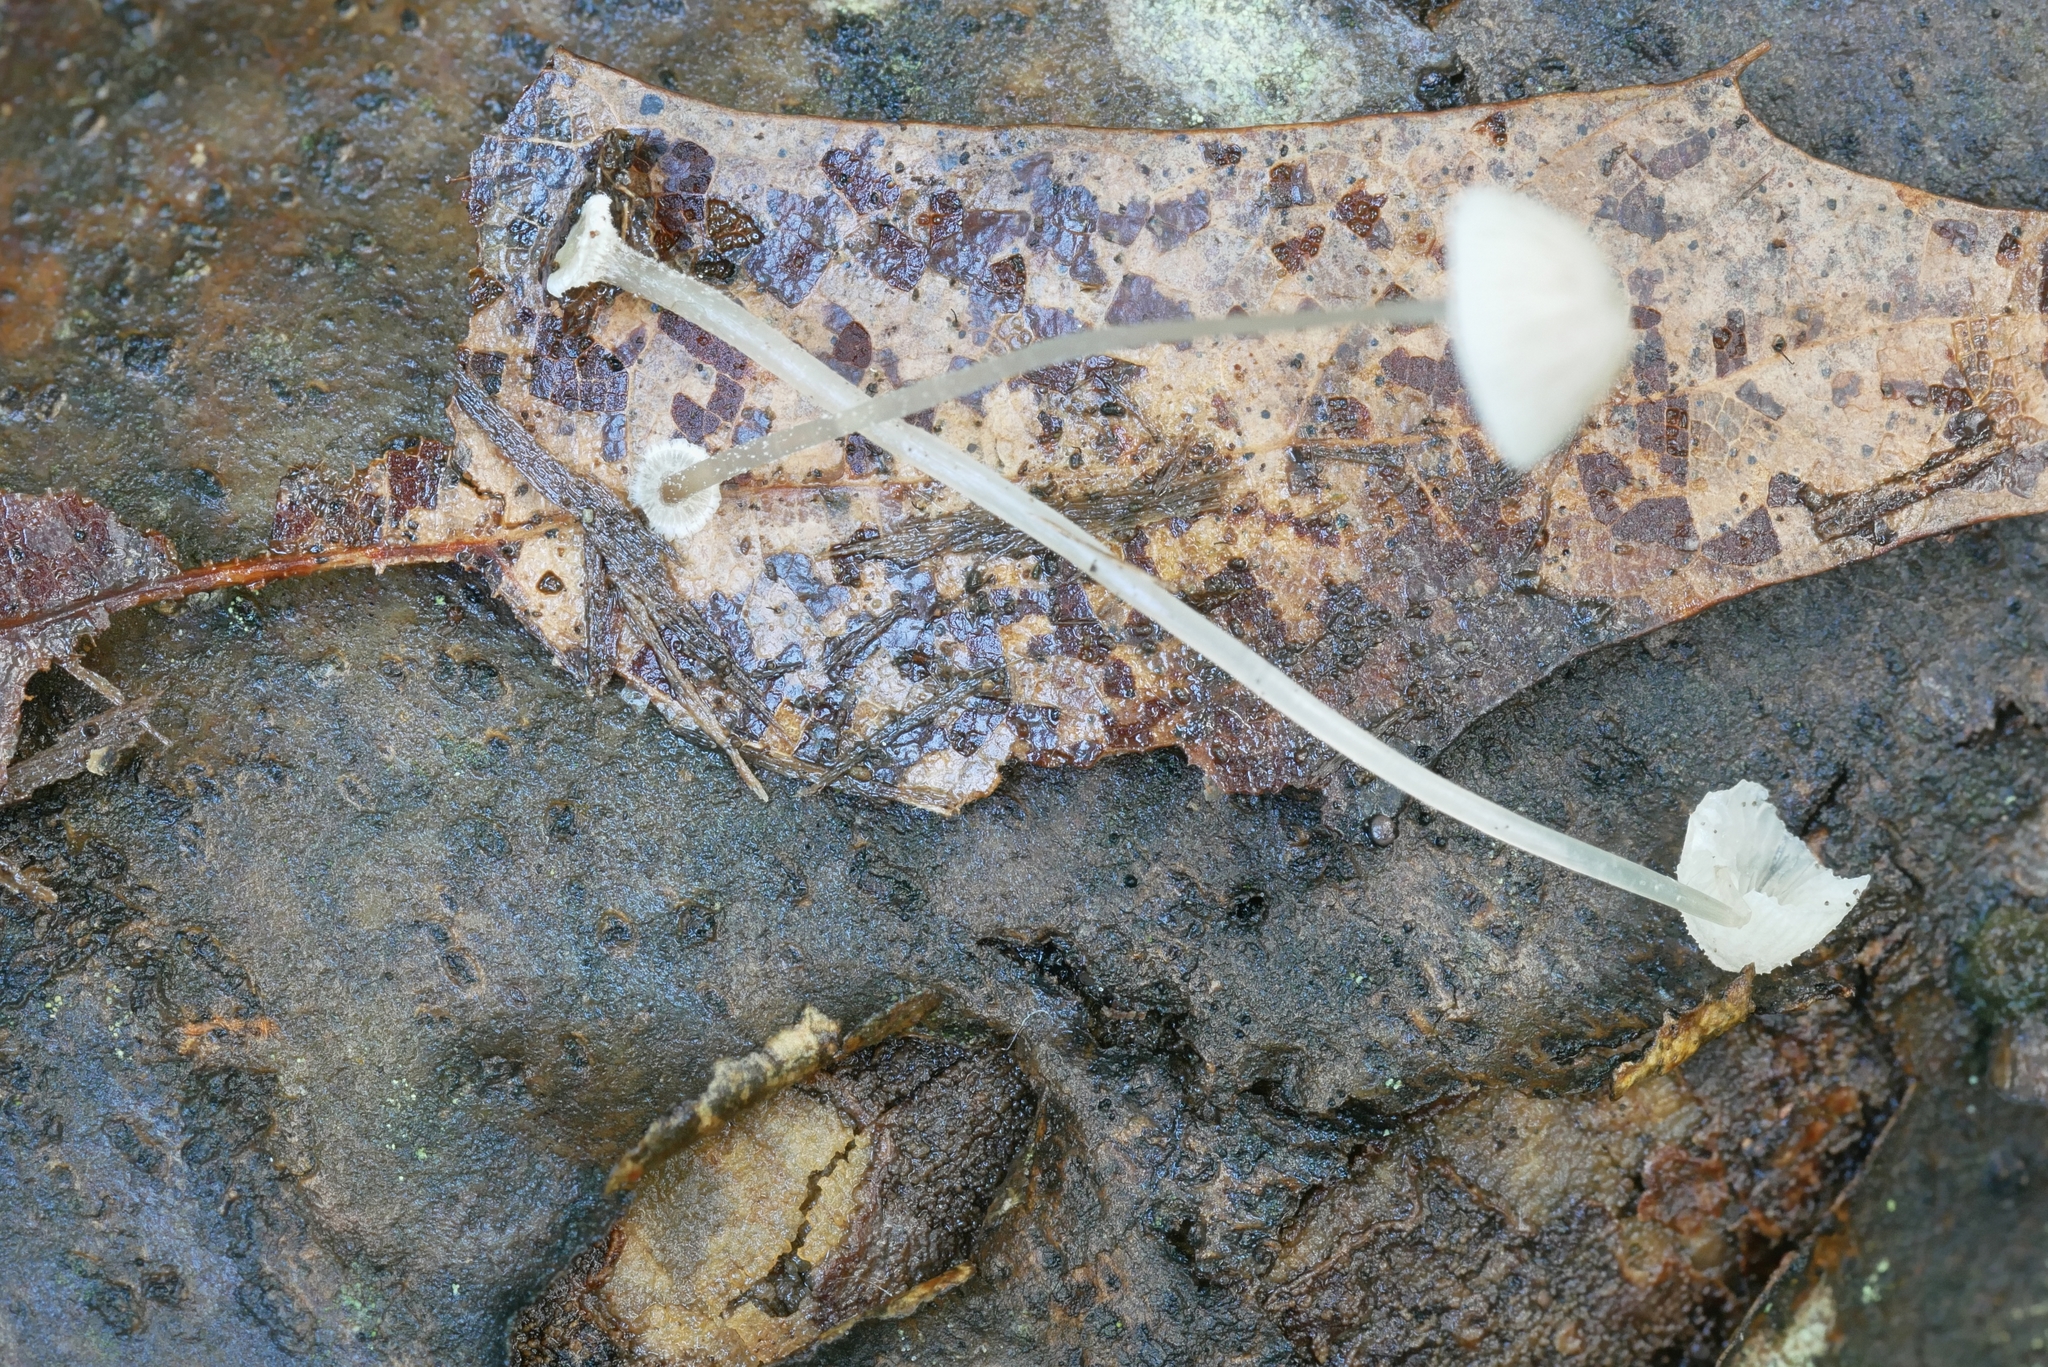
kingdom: Fungi
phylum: Basidiomycota
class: Agaricomycetes
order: Agaricales
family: Mycenaceae
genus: Mycena
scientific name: Mycena stylobates
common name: Bulbous bonnet
